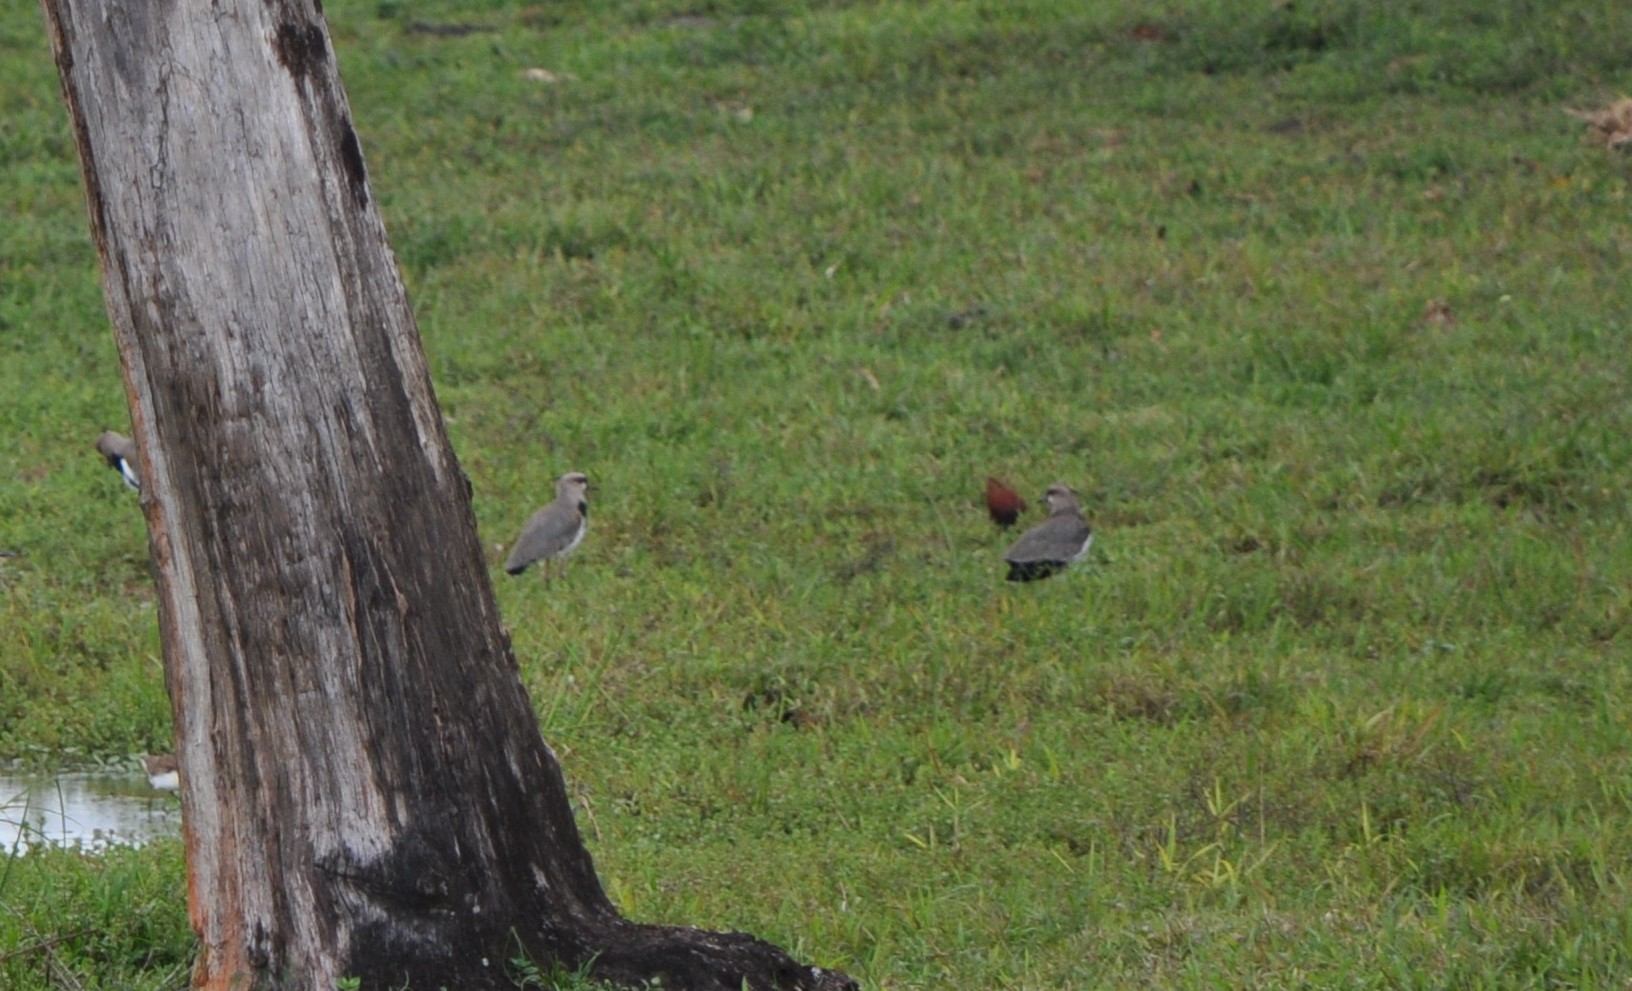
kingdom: Animalia
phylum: Chordata
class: Aves
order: Charadriiformes
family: Jacanidae
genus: Jacana
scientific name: Jacana spinosa
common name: Northern jacana
